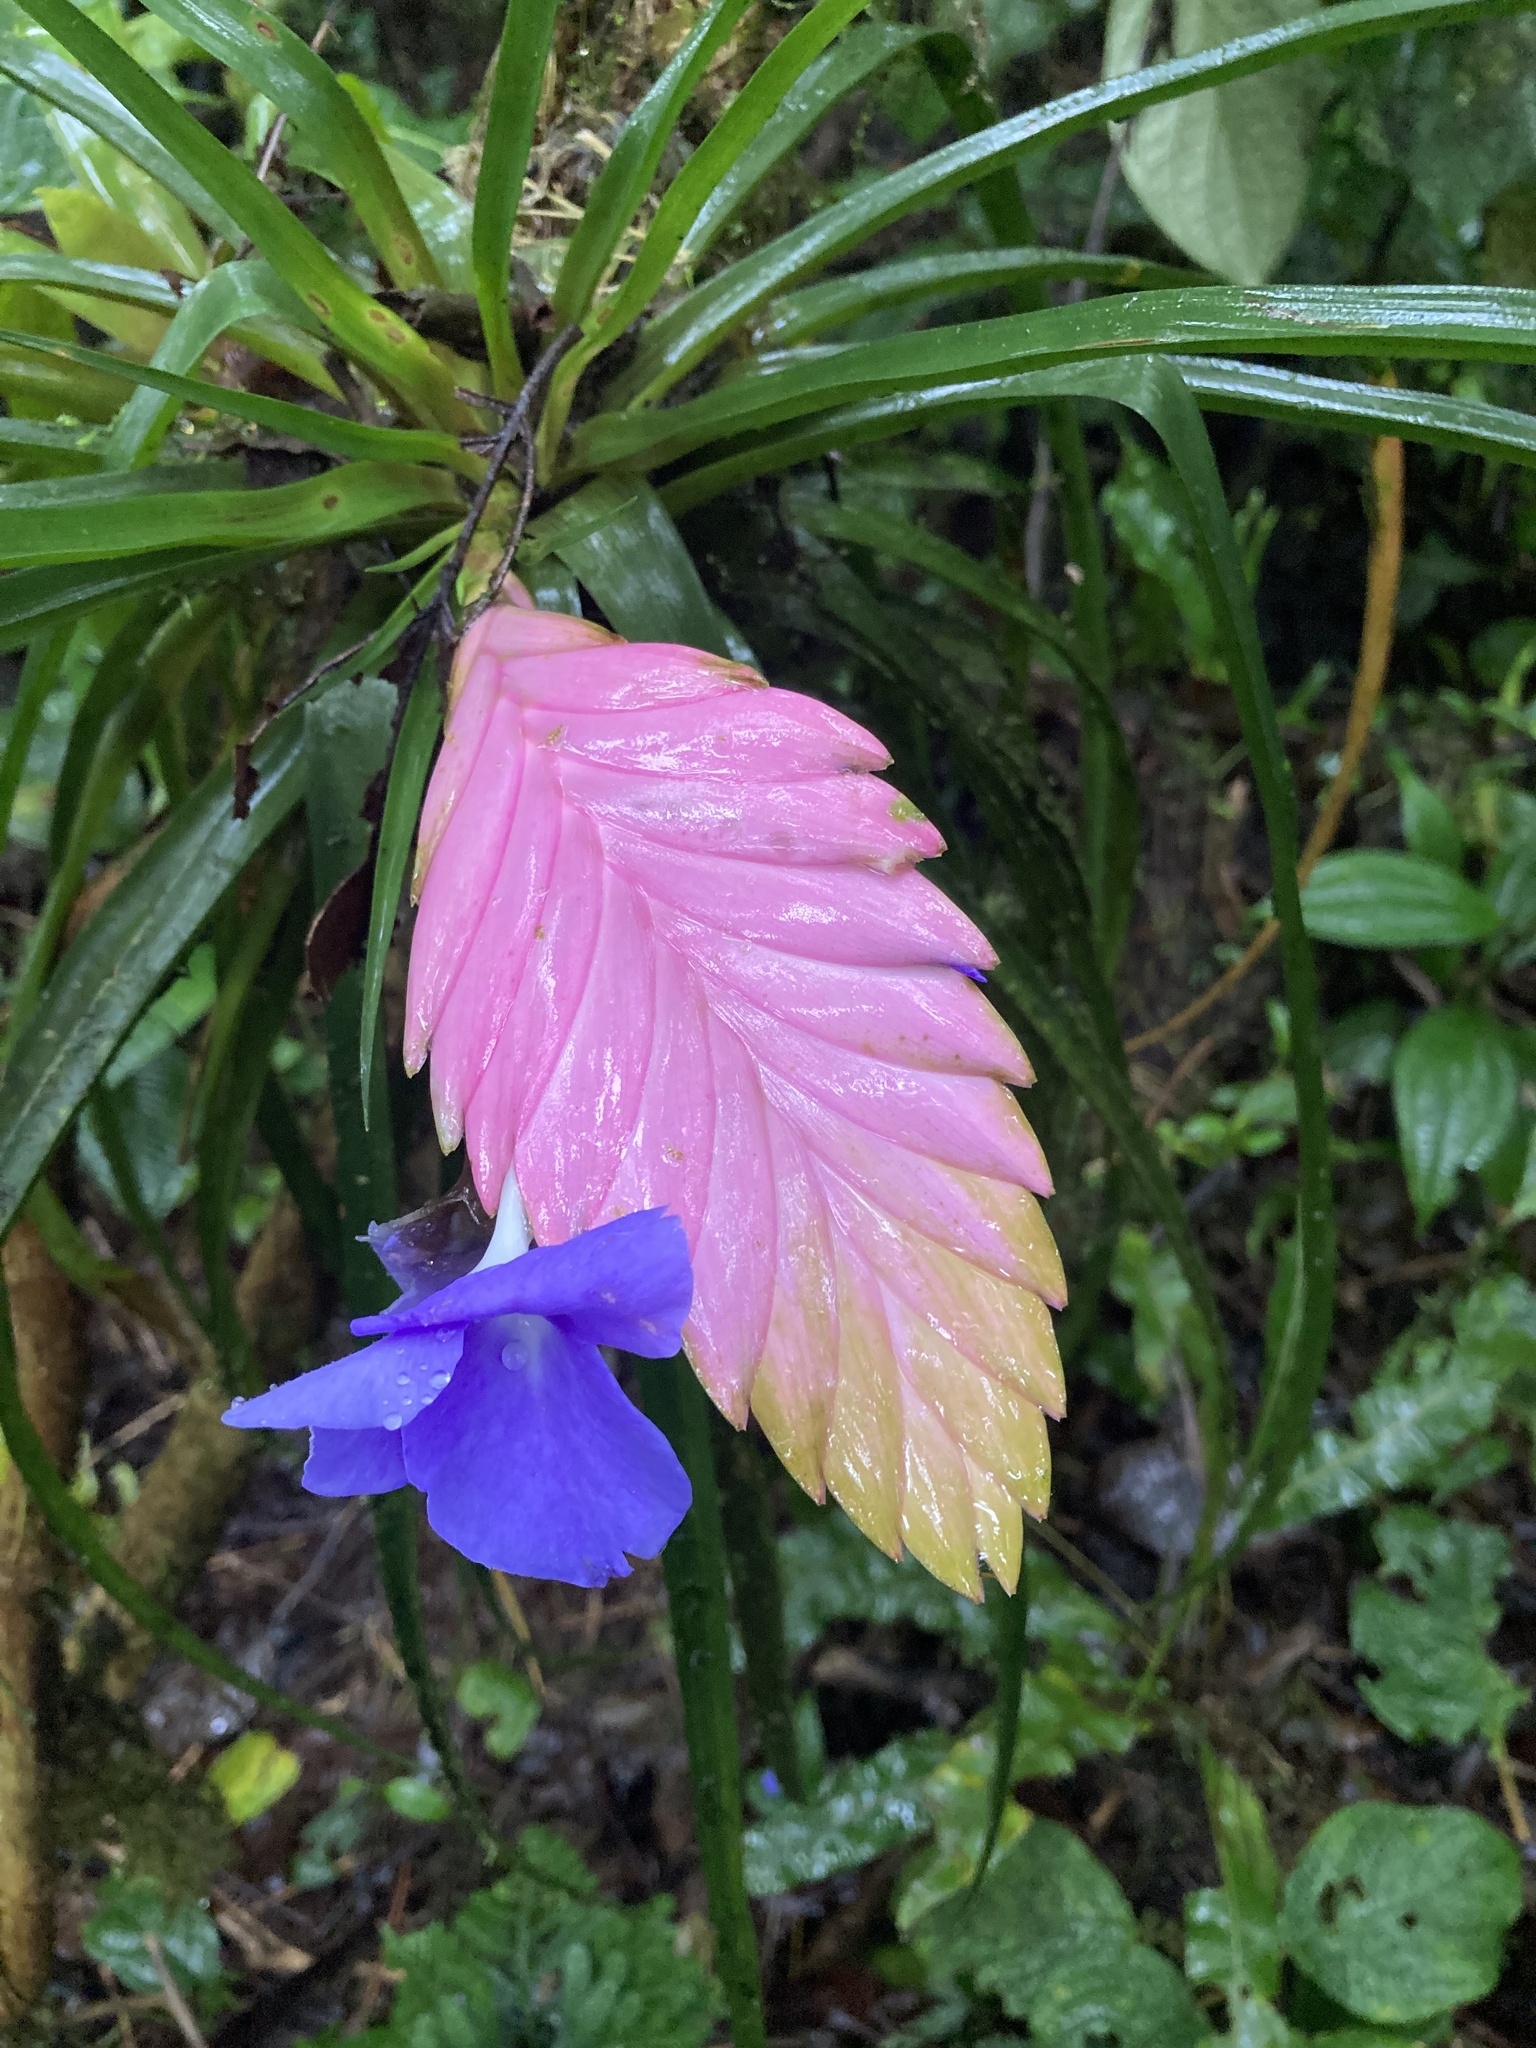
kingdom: Plantae
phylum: Tracheophyta
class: Liliopsida
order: Poales
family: Bromeliaceae
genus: Wallisia
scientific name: Wallisia cyanea
